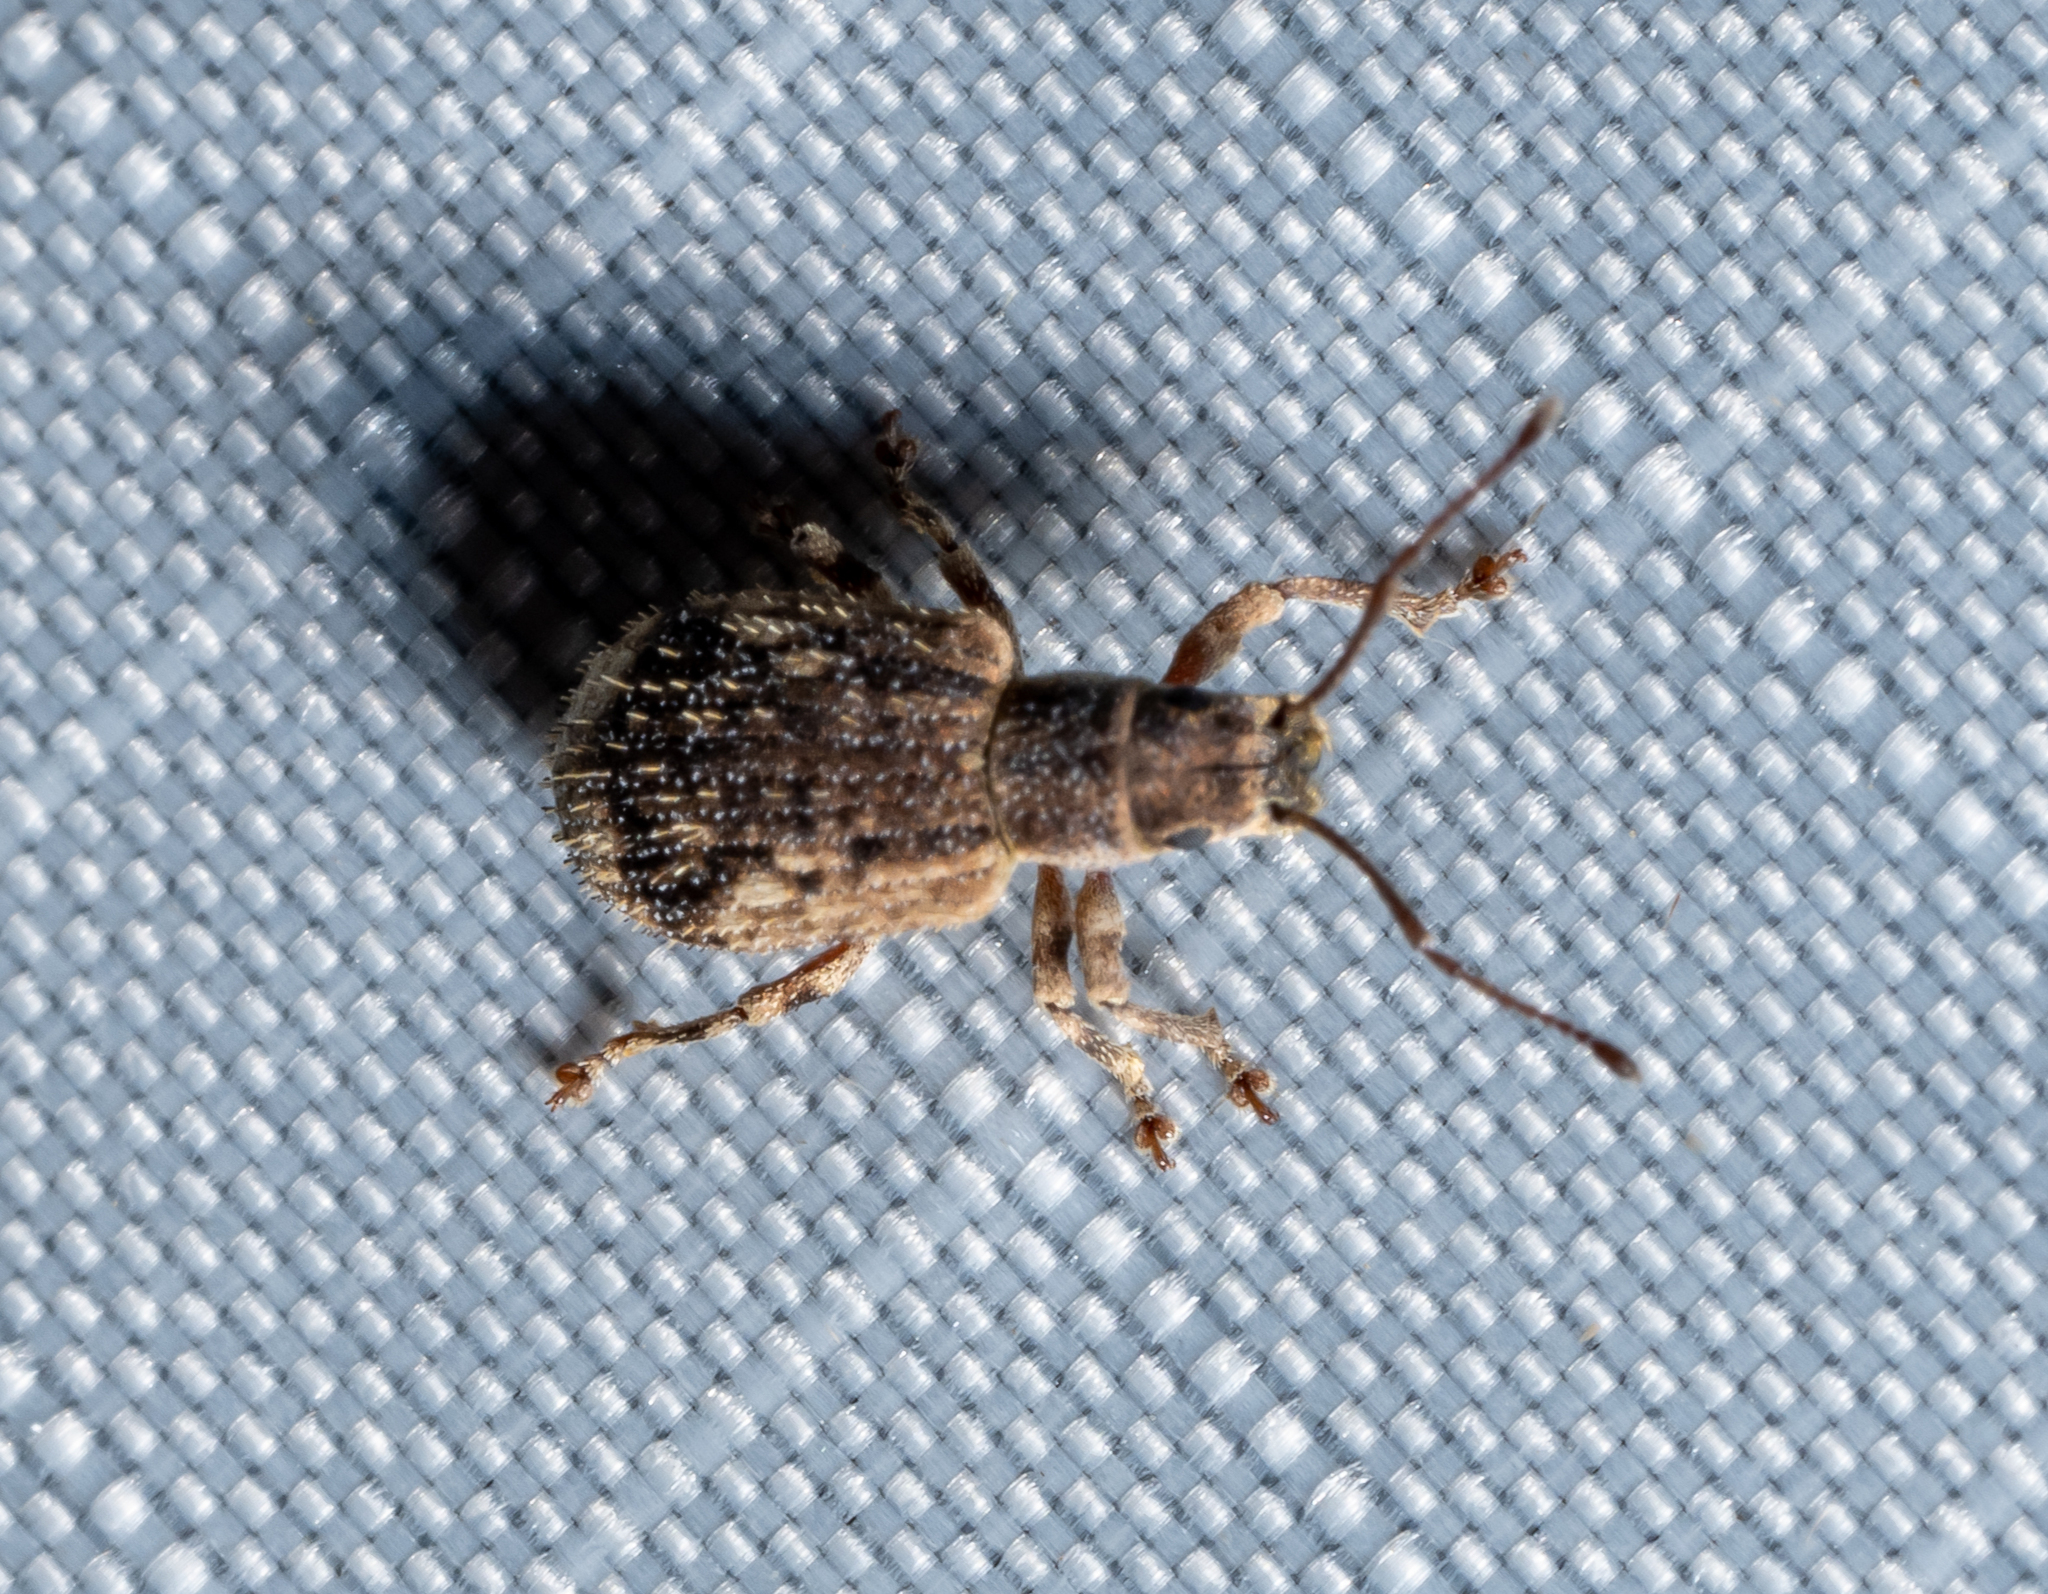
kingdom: Animalia
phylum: Arthropoda
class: Insecta
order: Coleoptera
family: Curculionidae
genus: Pseudoedophrys
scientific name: Pseudoedophrys hilleri
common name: Weevil
